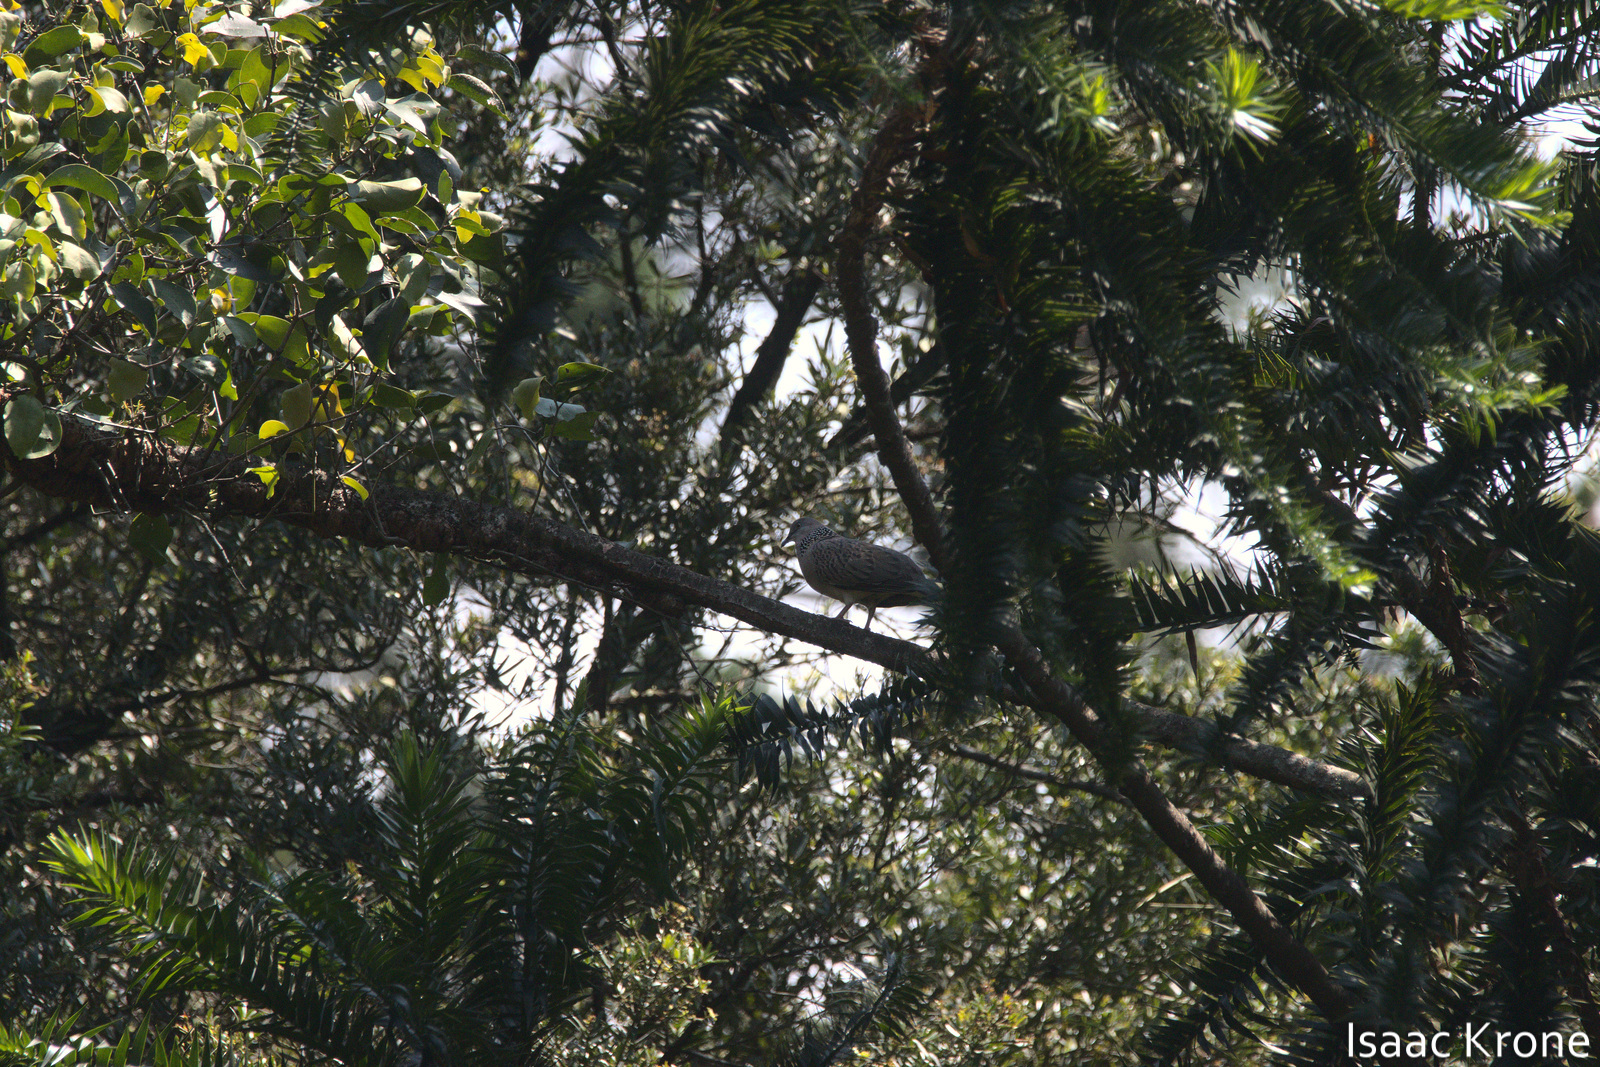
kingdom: Animalia
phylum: Chordata
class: Aves
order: Columbiformes
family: Columbidae
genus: Spilopelia
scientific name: Spilopelia chinensis
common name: Spotted dove
